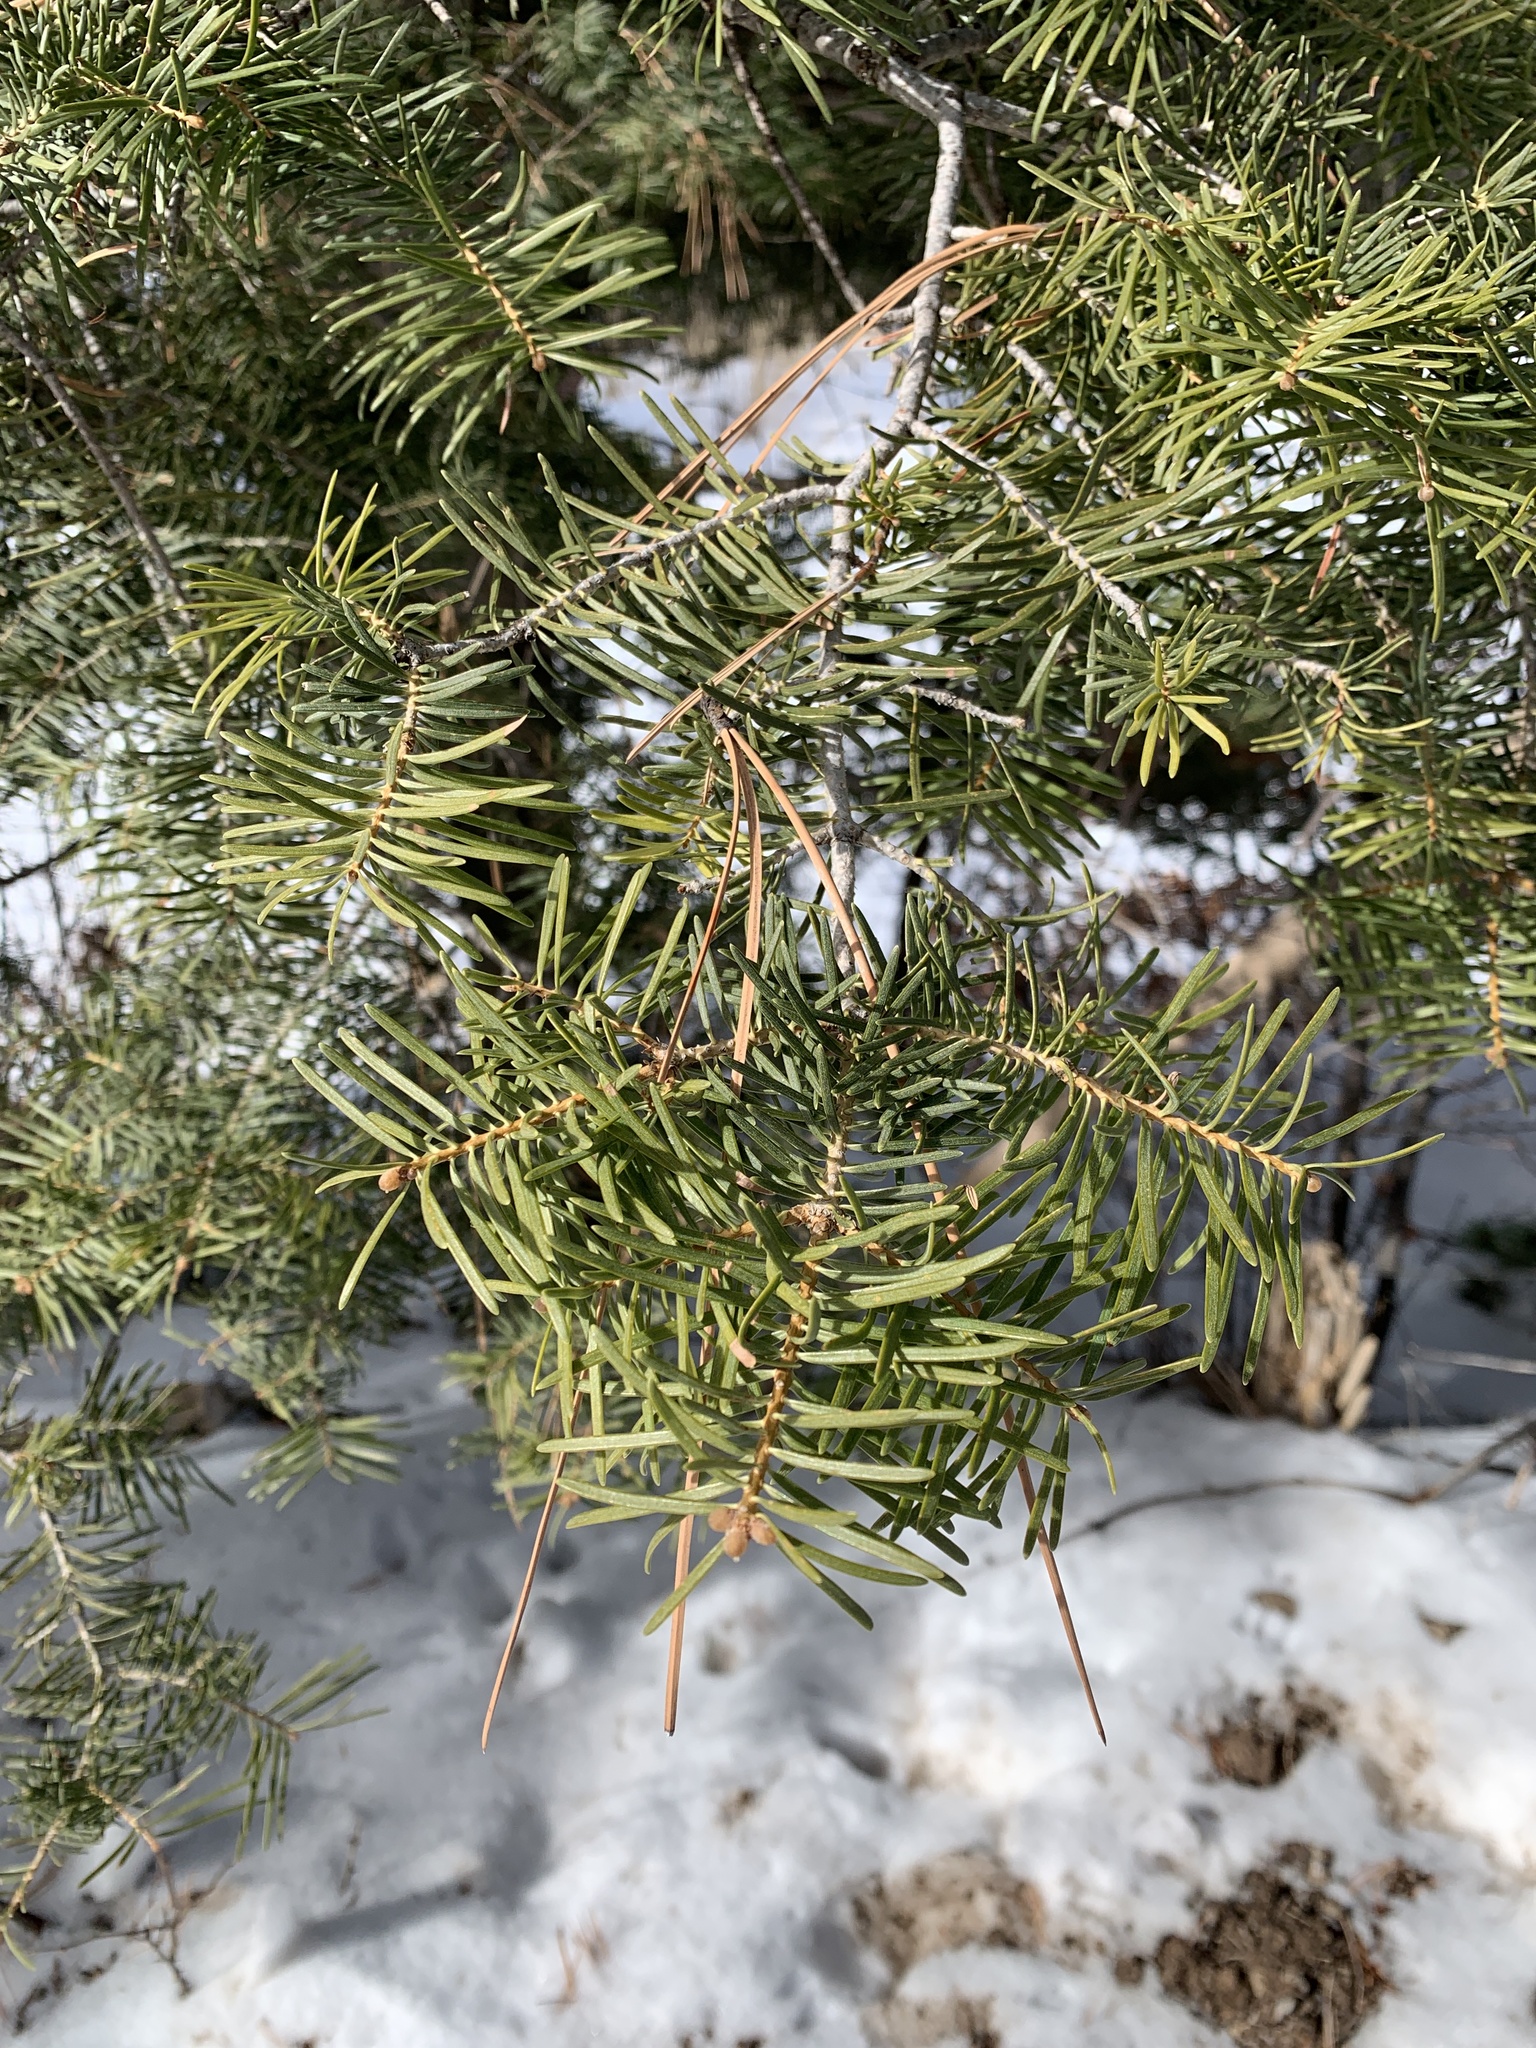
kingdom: Plantae
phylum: Tracheophyta
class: Pinopsida
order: Pinales
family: Pinaceae
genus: Abies
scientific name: Abies concolor
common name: Colorado fir
